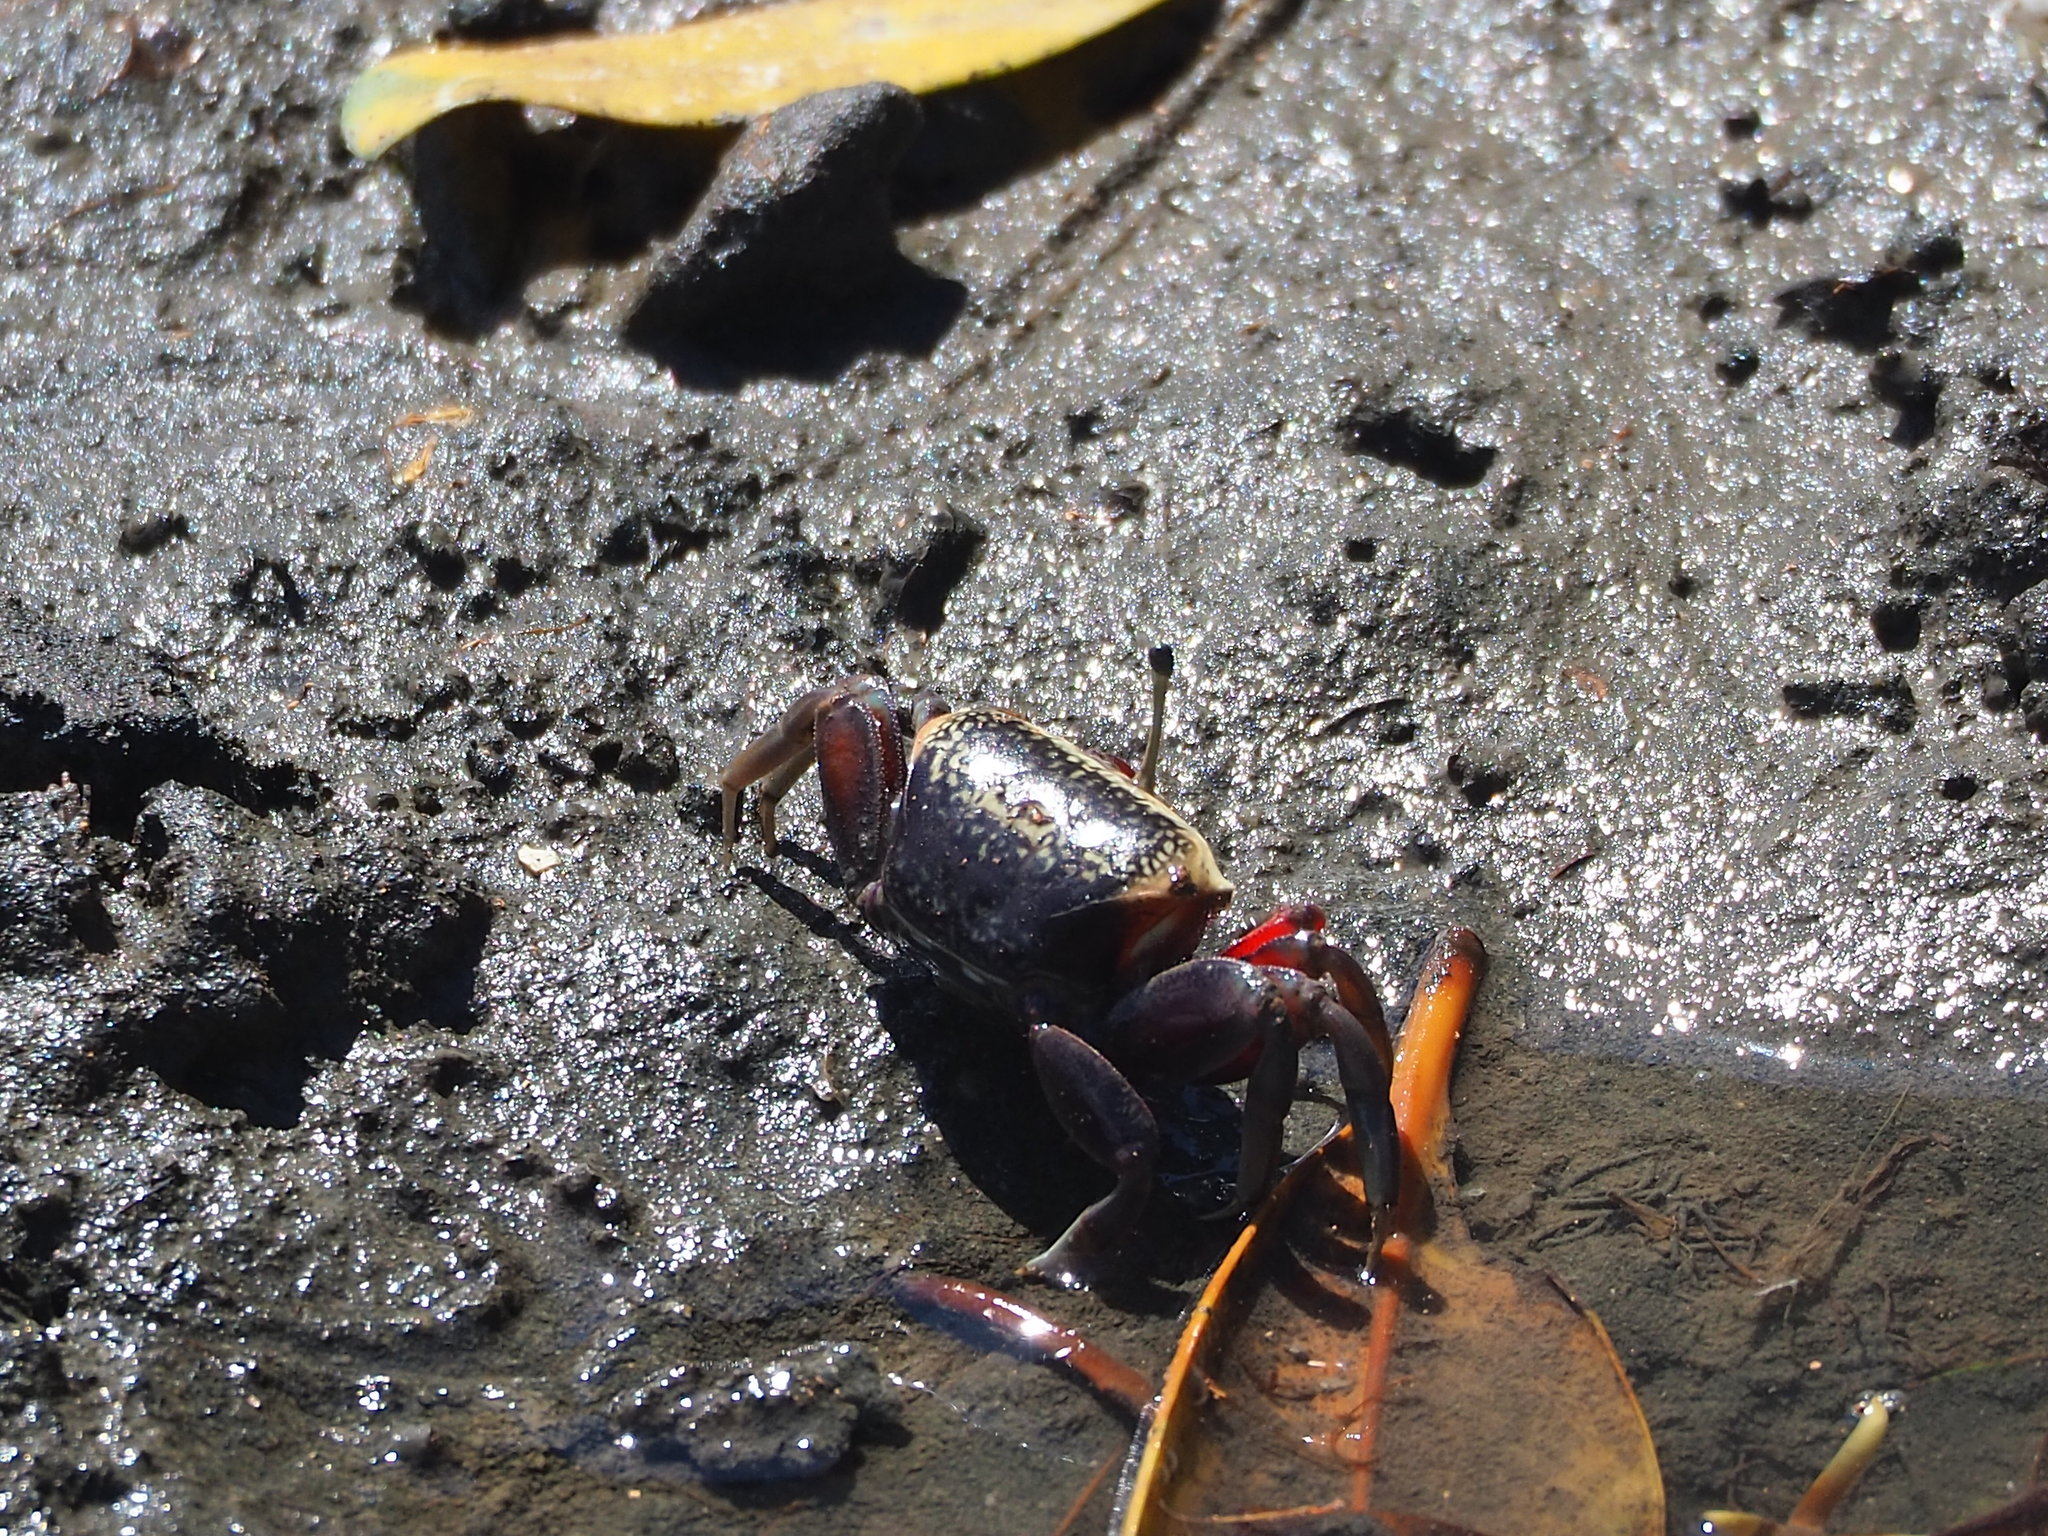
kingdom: Animalia
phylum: Arthropoda
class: Malacostraca
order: Decapoda
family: Ocypodidae
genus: Tubuca
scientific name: Tubuca arcuata
